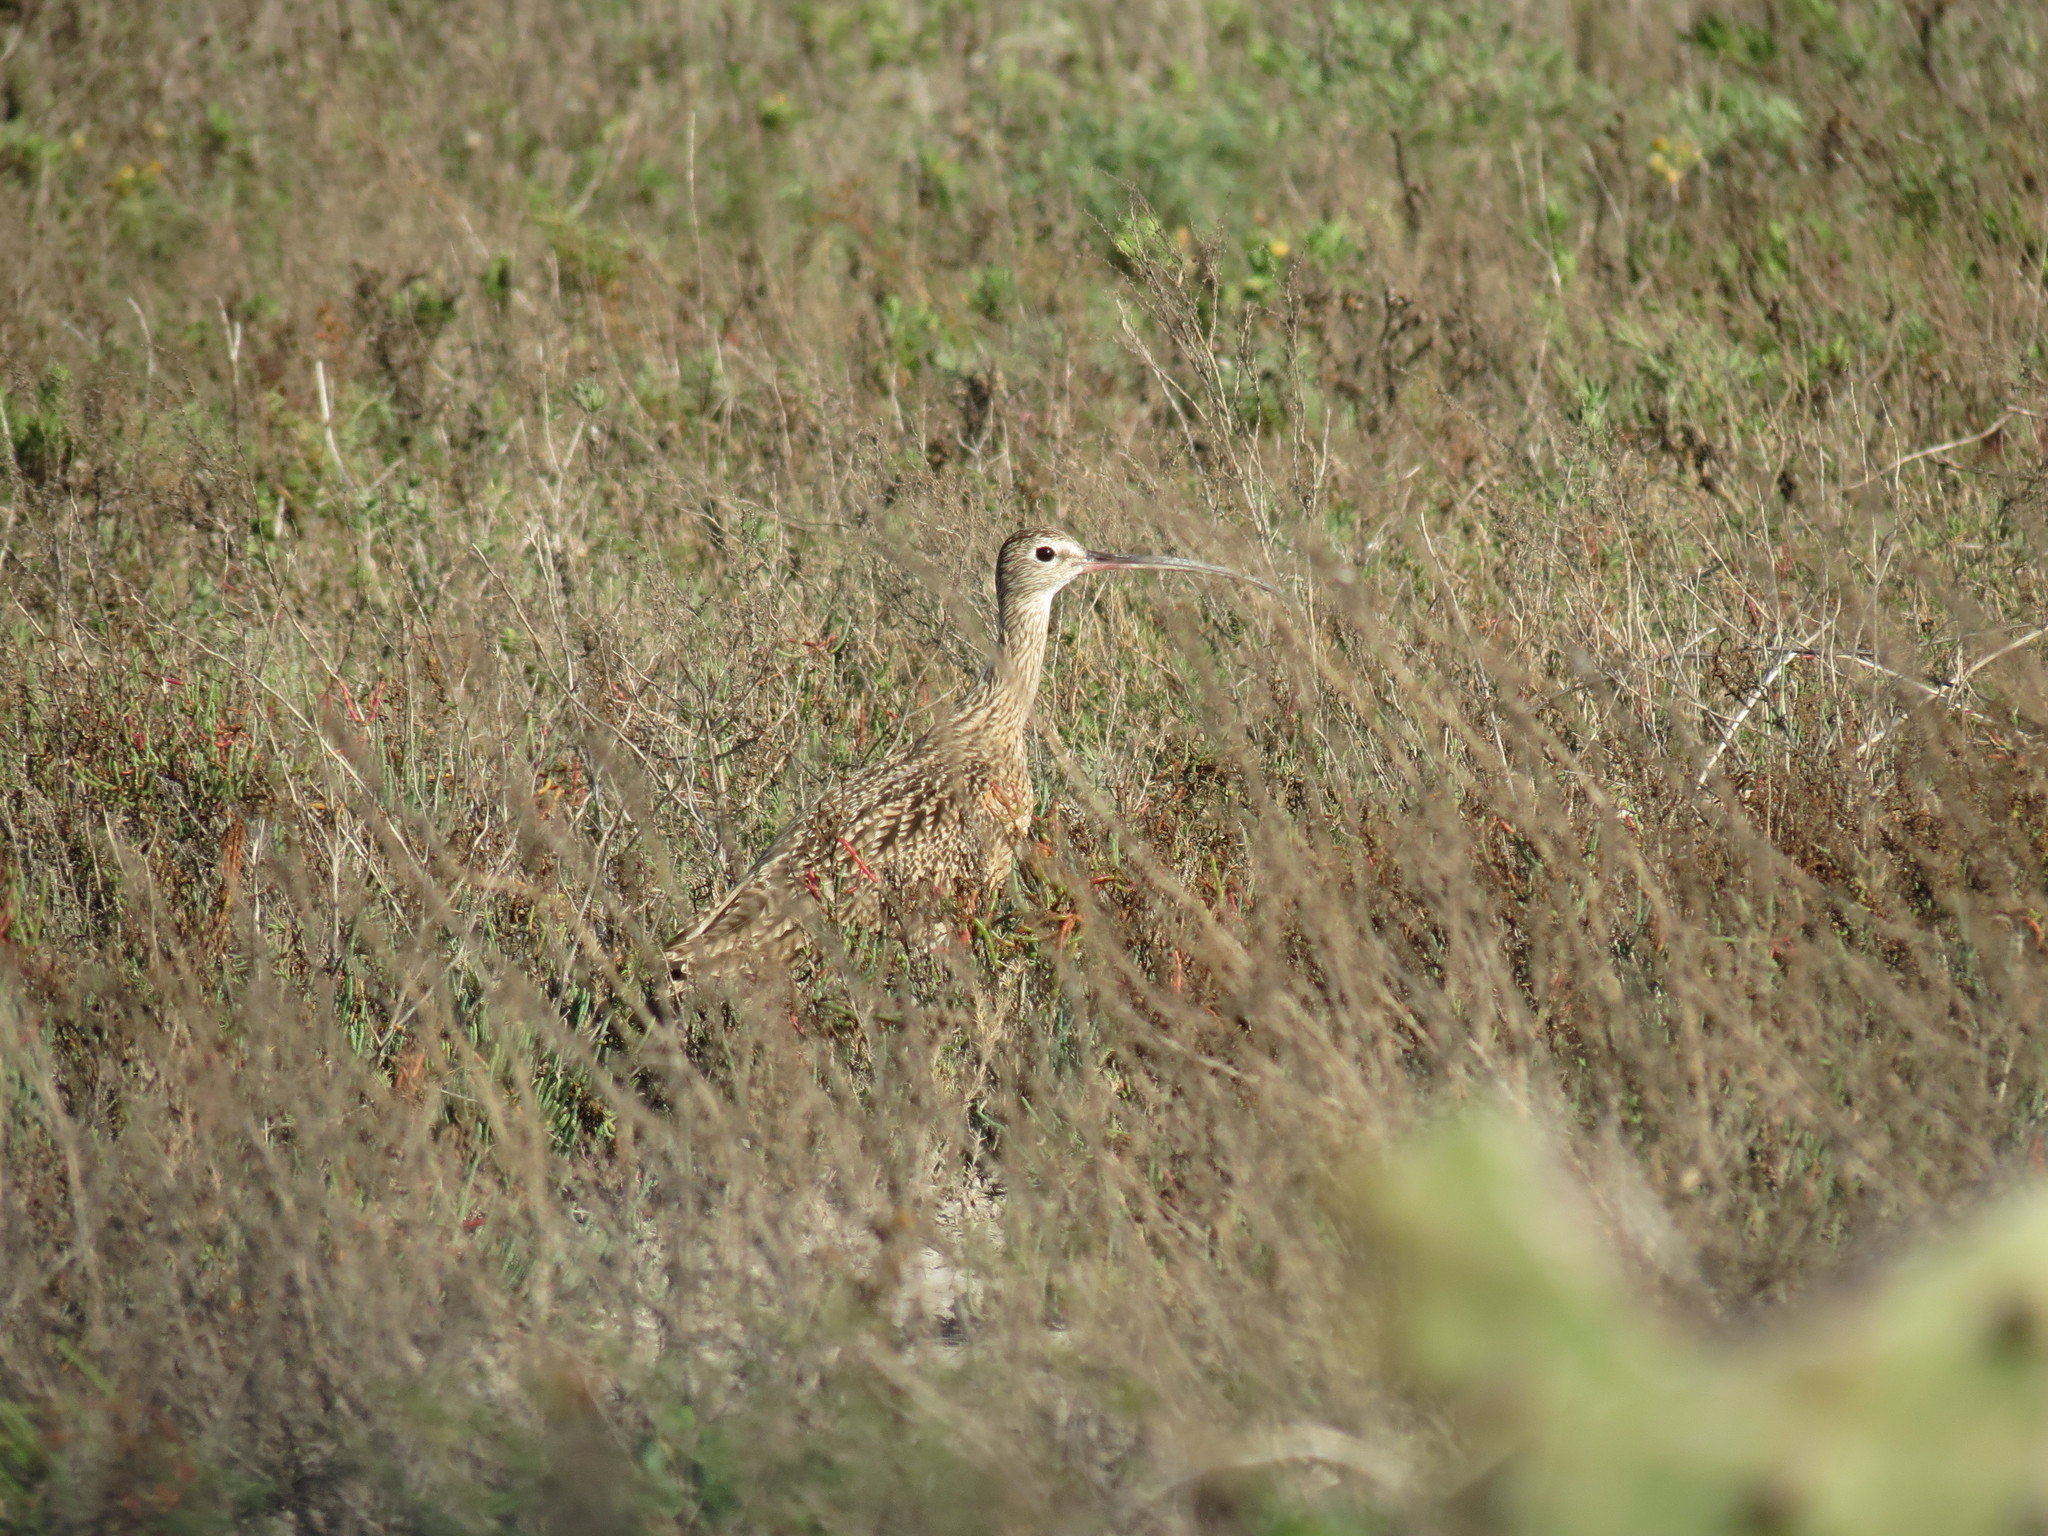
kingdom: Animalia
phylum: Chordata
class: Aves
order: Charadriiformes
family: Scolopacidae
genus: Numenius
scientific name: Numenius americanus
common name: Long-billed curlew
